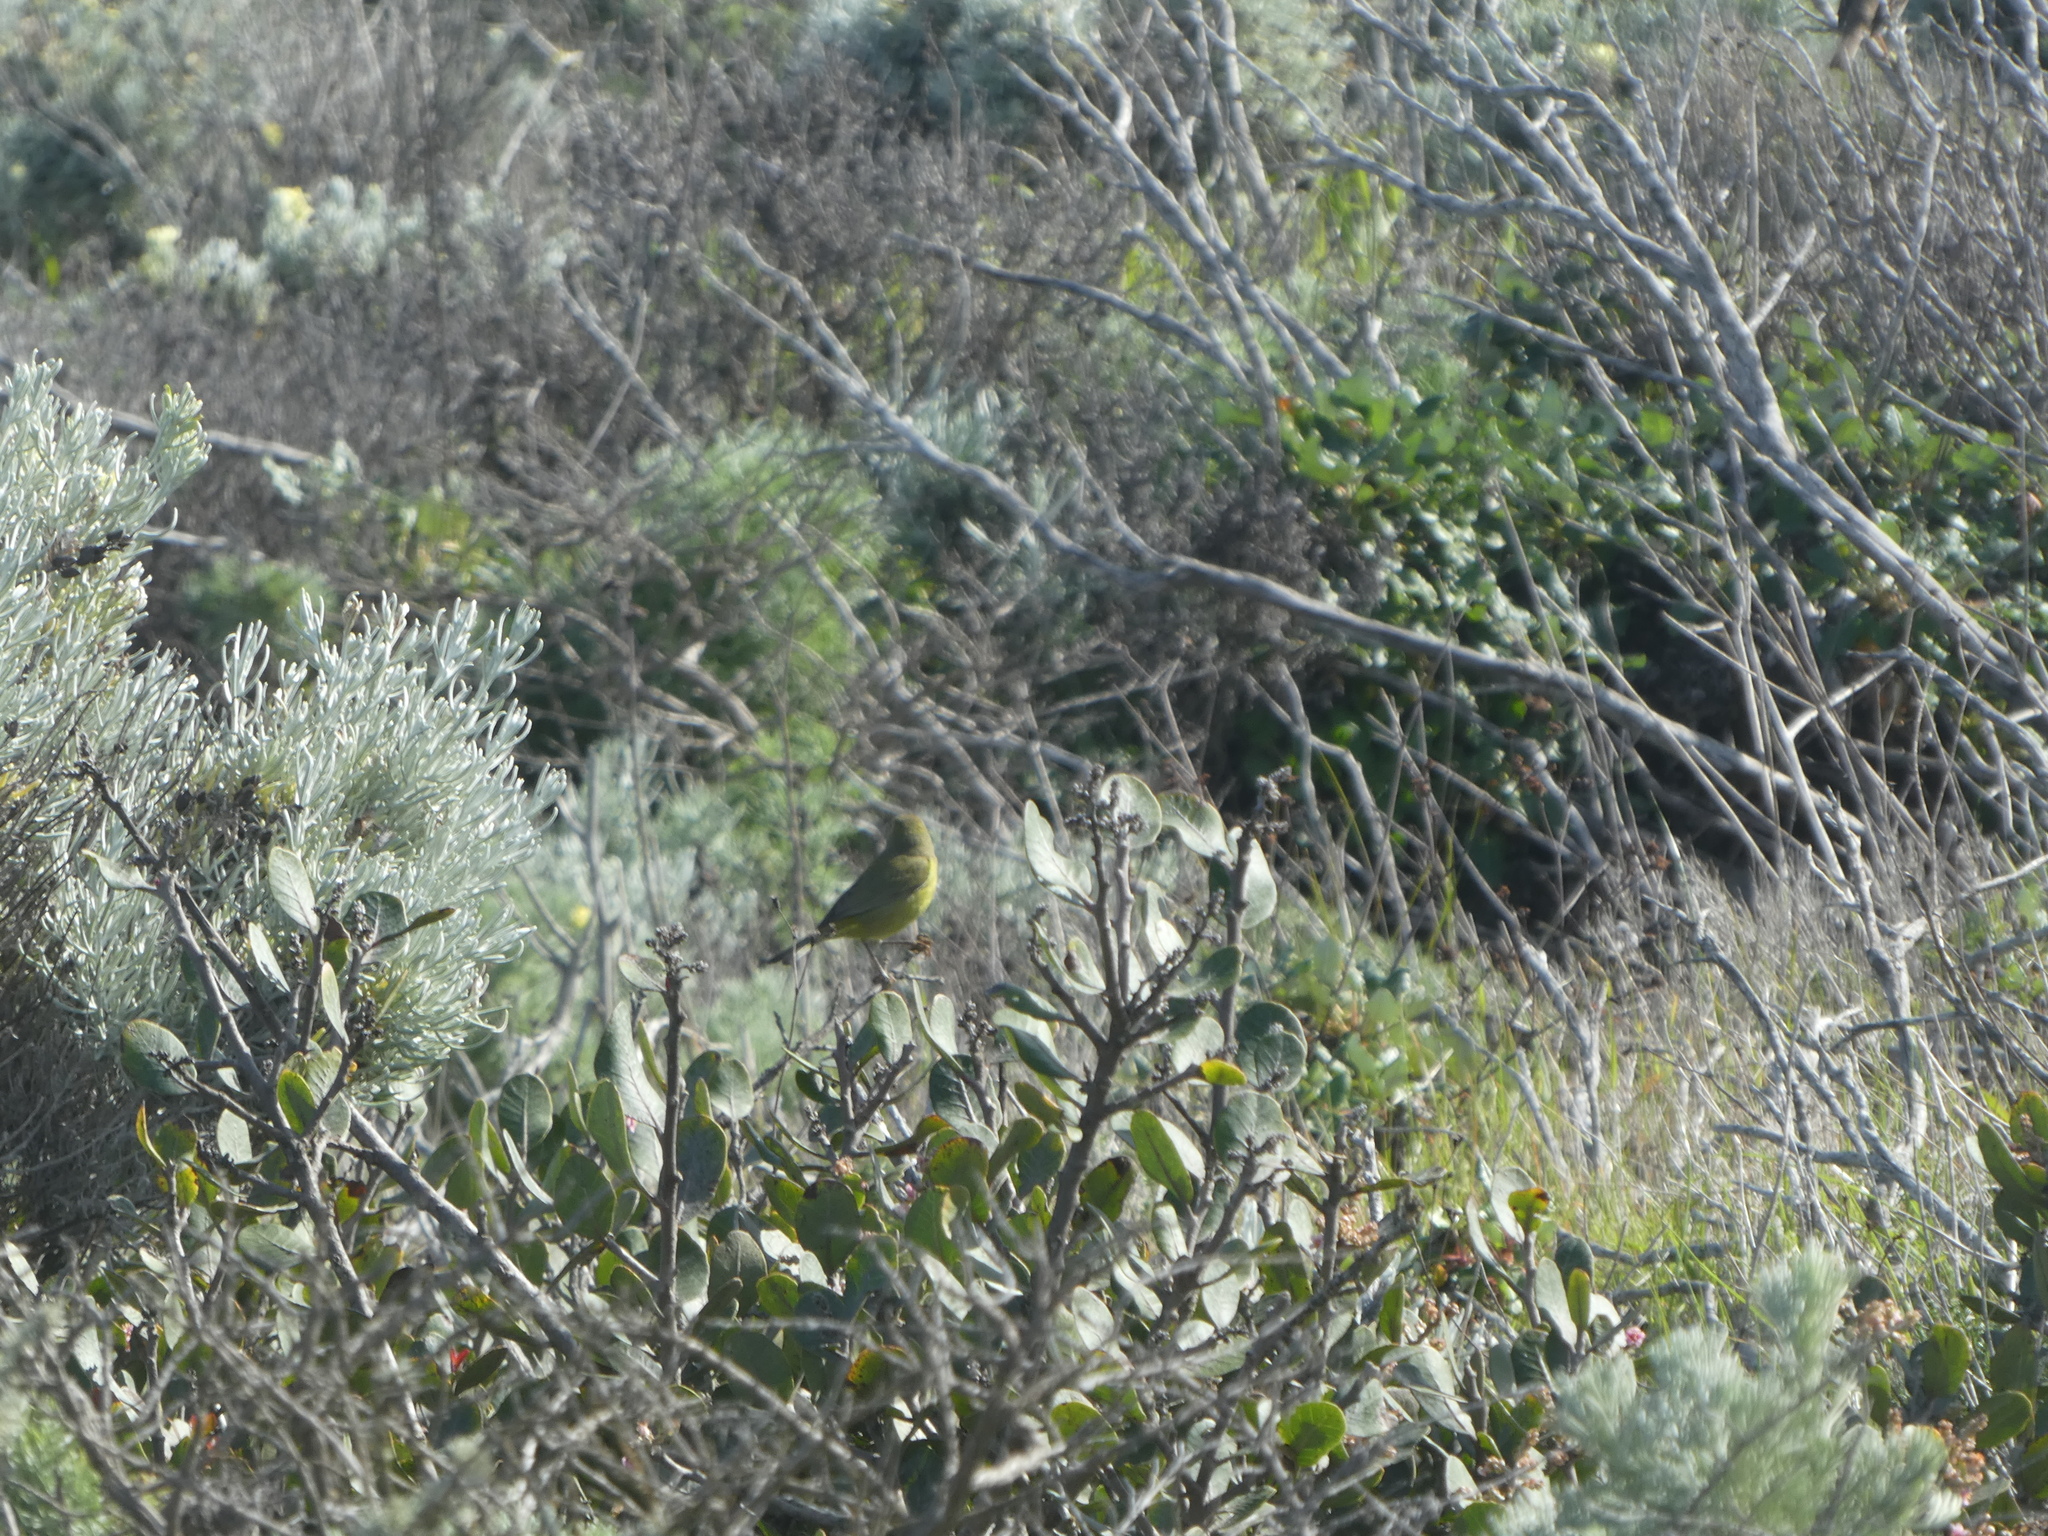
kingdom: Animalia
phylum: Chordata
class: Aves
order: Passeriformes
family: Parulidae
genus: Leiothlypis
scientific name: Leiothlypis celata
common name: Orange-crowned warbler
